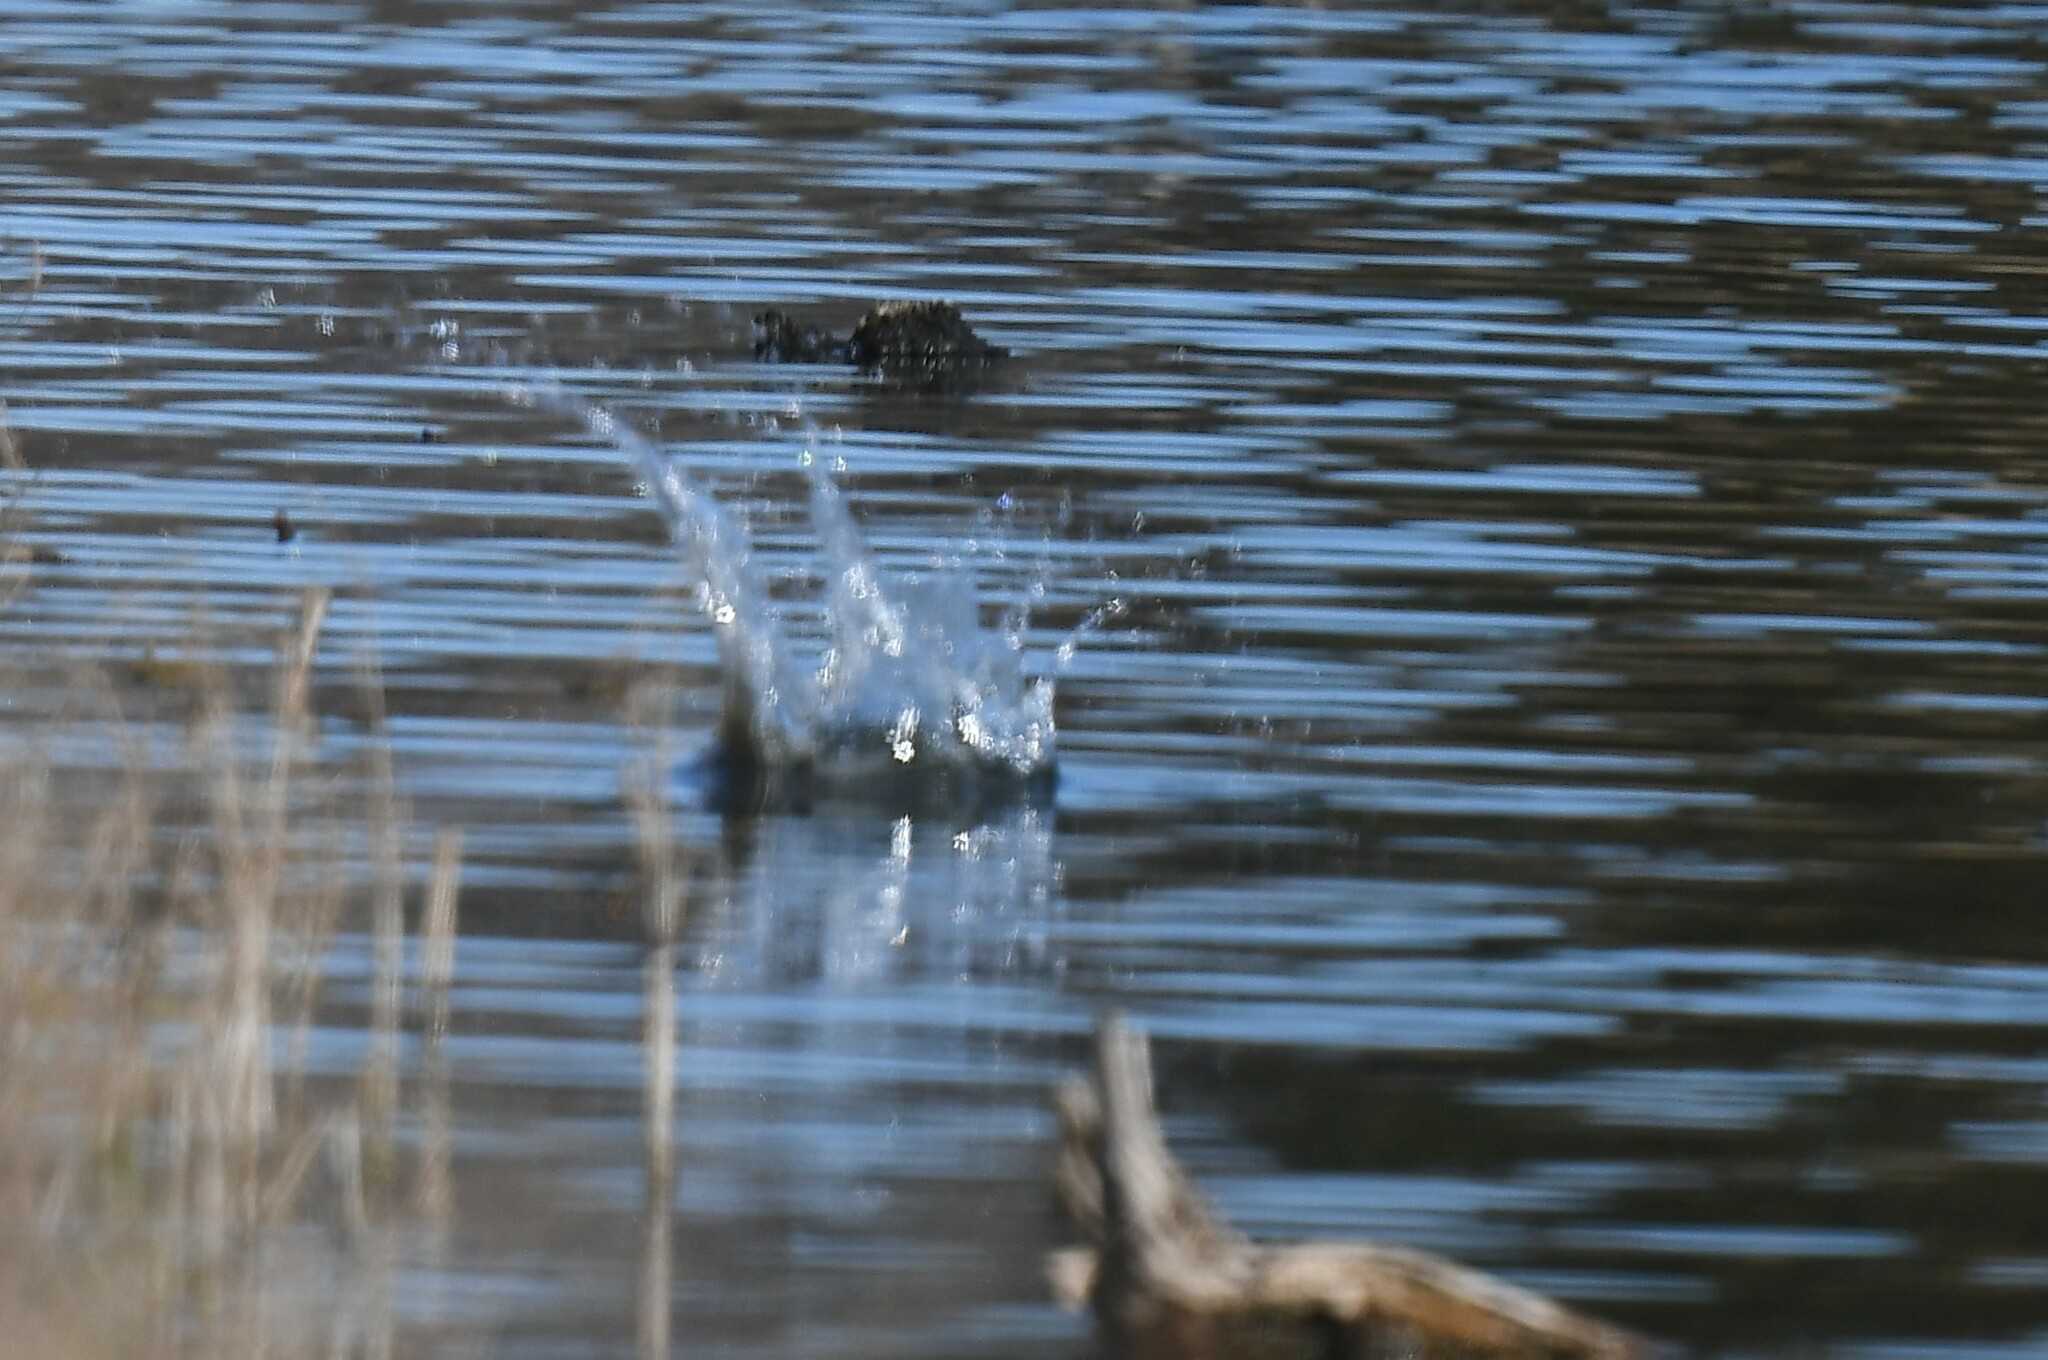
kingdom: Animalia
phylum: Chordata
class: Aves
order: Coraciiformes
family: Alcedinidae
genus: Megaceryle
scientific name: Megaceryle alcyon
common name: Belted kingfisher
